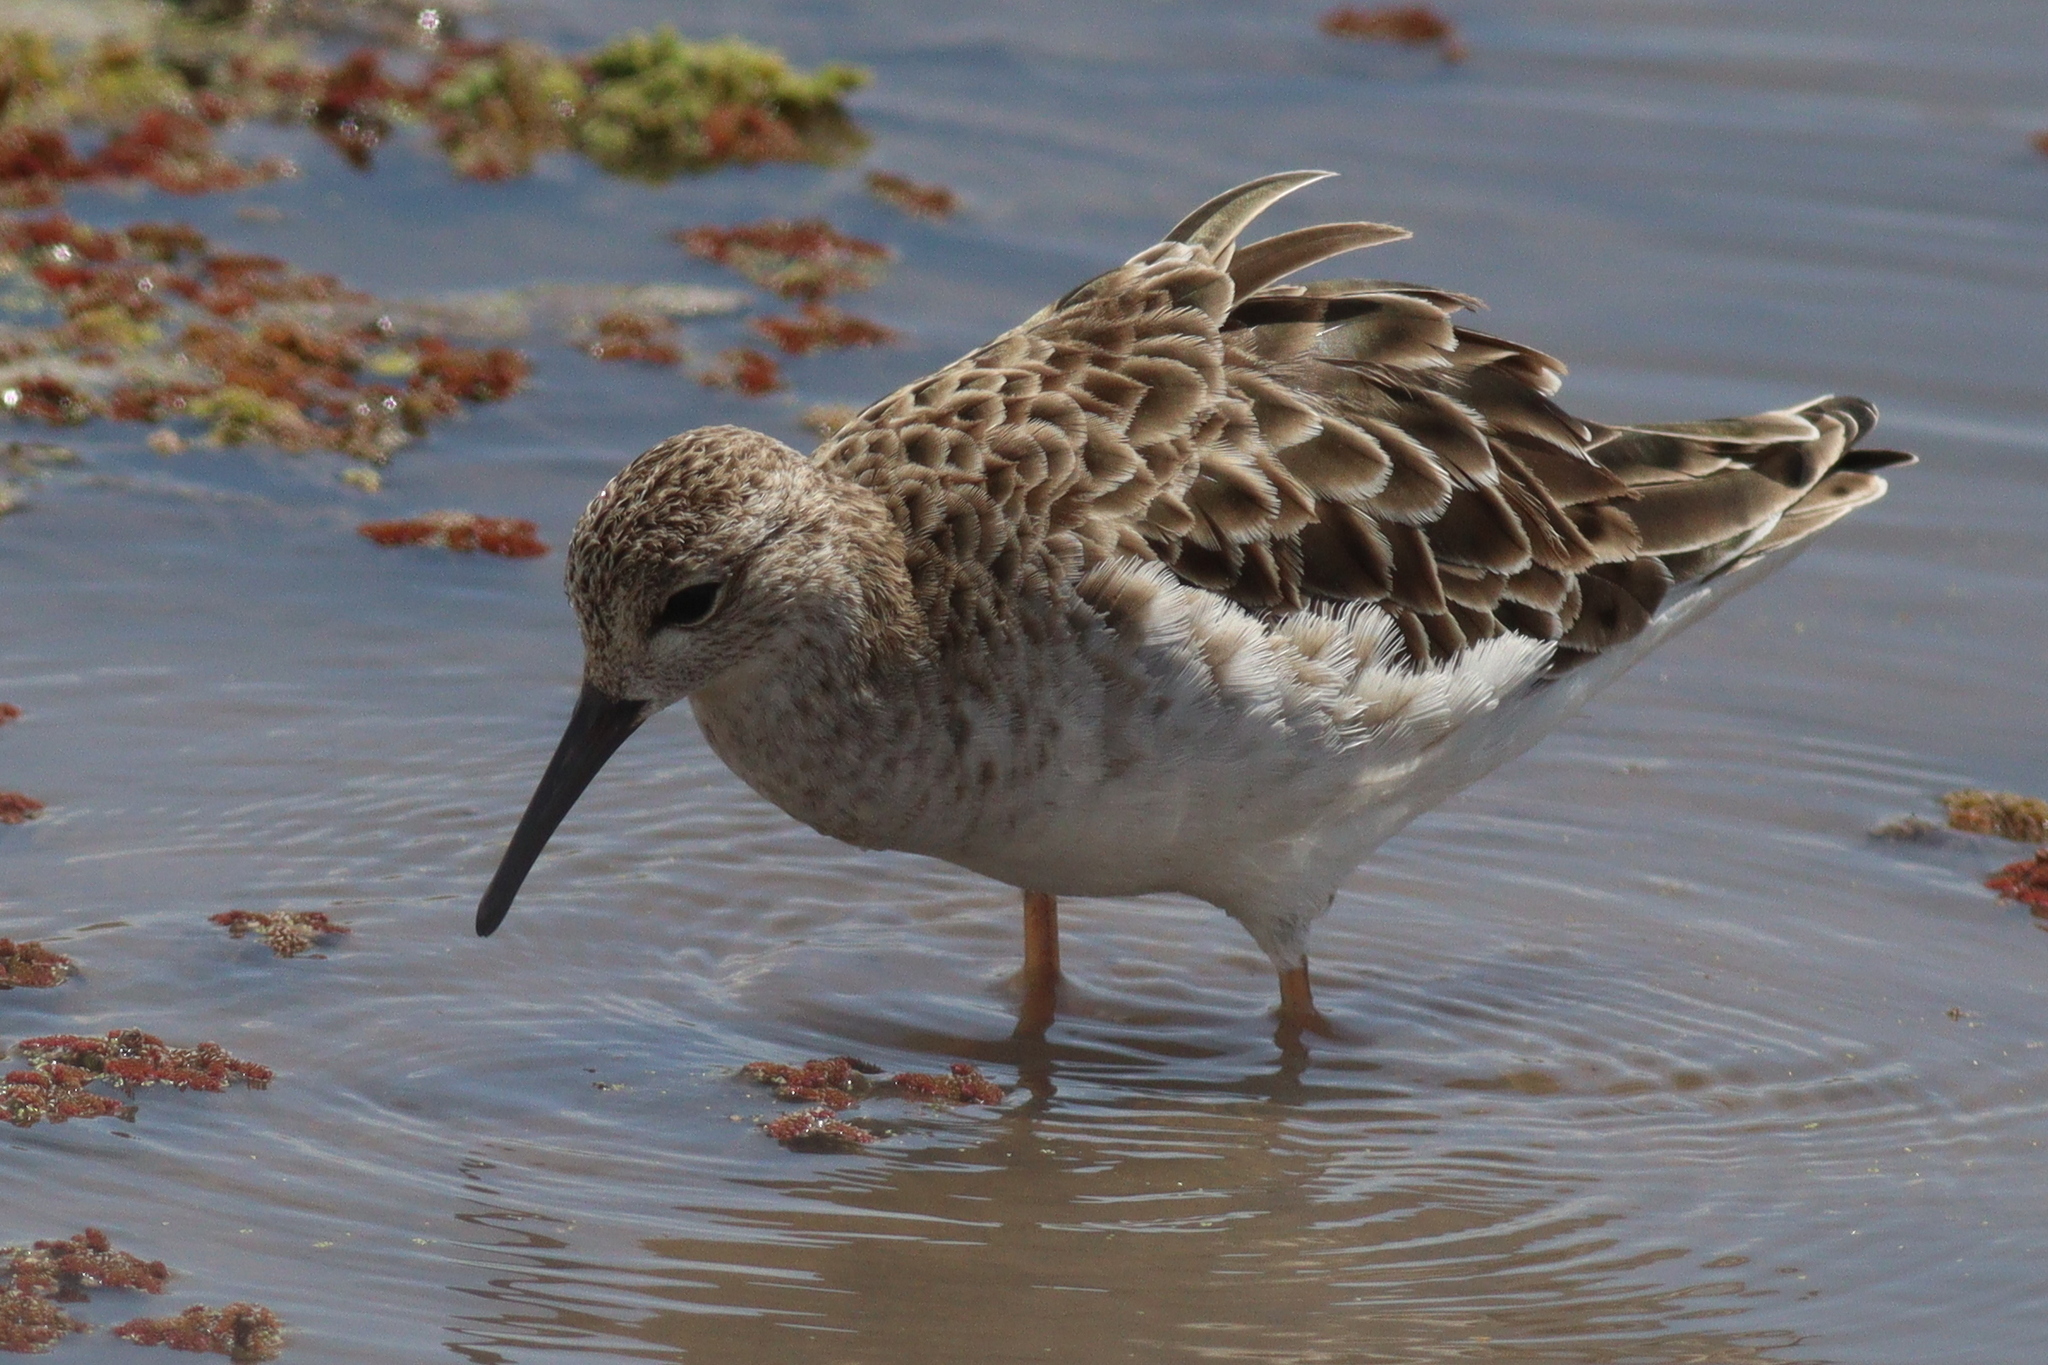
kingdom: Animalia
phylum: Chordata
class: Aves
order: Charadriiformes
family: Scolopacidae
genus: Calidris
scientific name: Calidris pugnax
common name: Ruff
